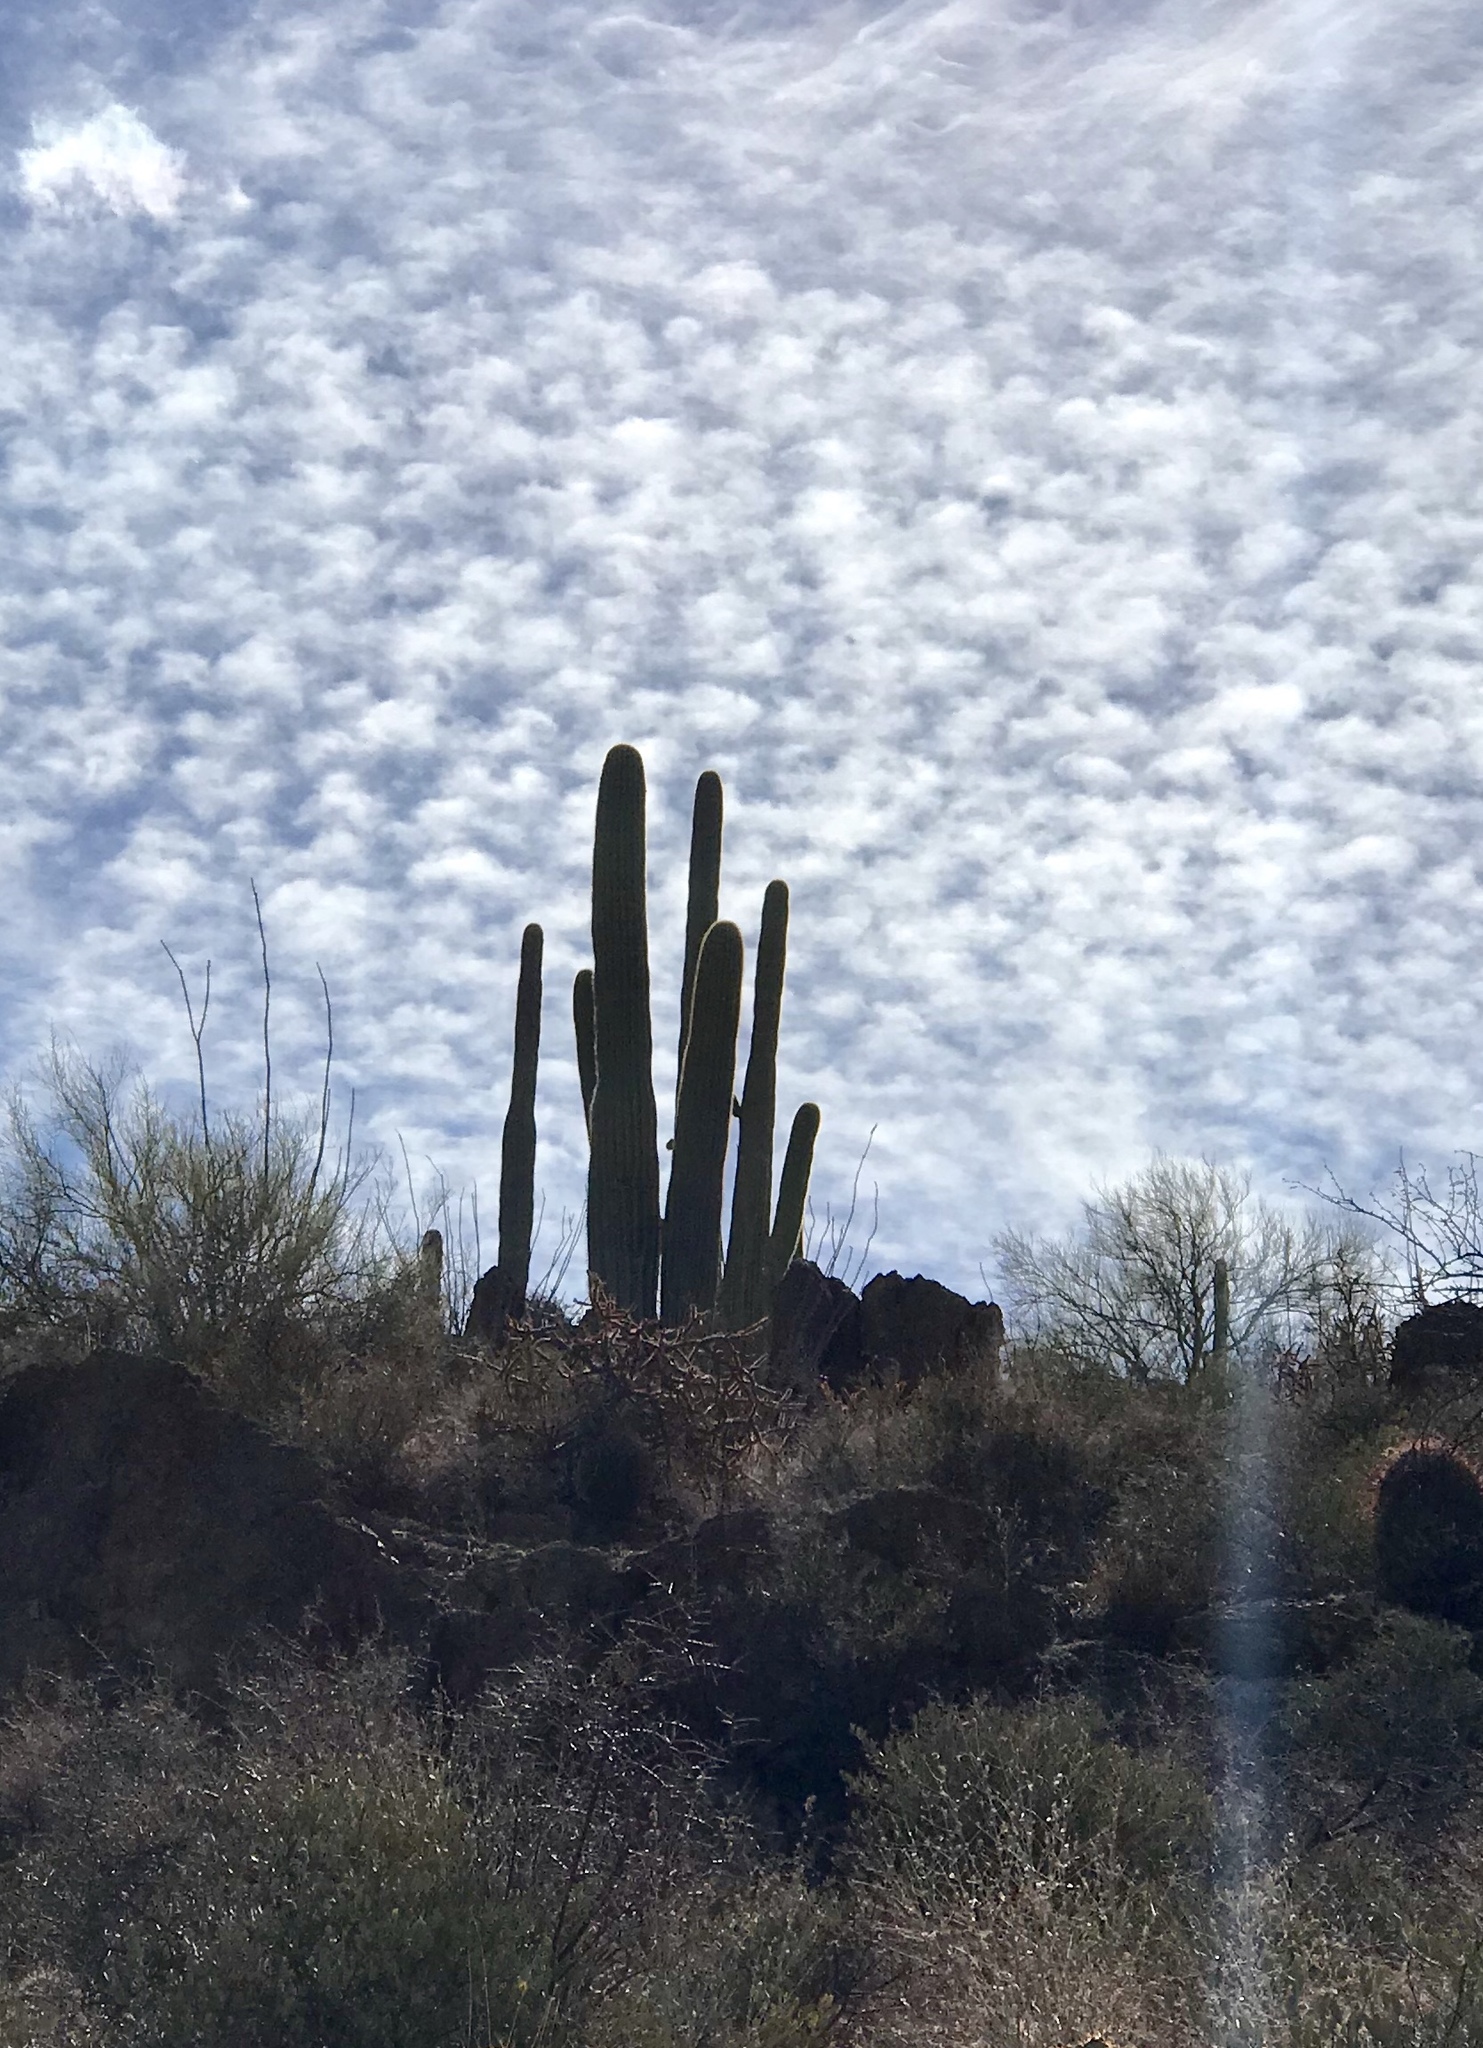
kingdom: Plantae
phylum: Tracheophyta
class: Magnoliopsida
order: Caryophyllales
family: Cactaceae
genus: Carnegiea
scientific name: Carnegiea gigantea
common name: Saguaro
